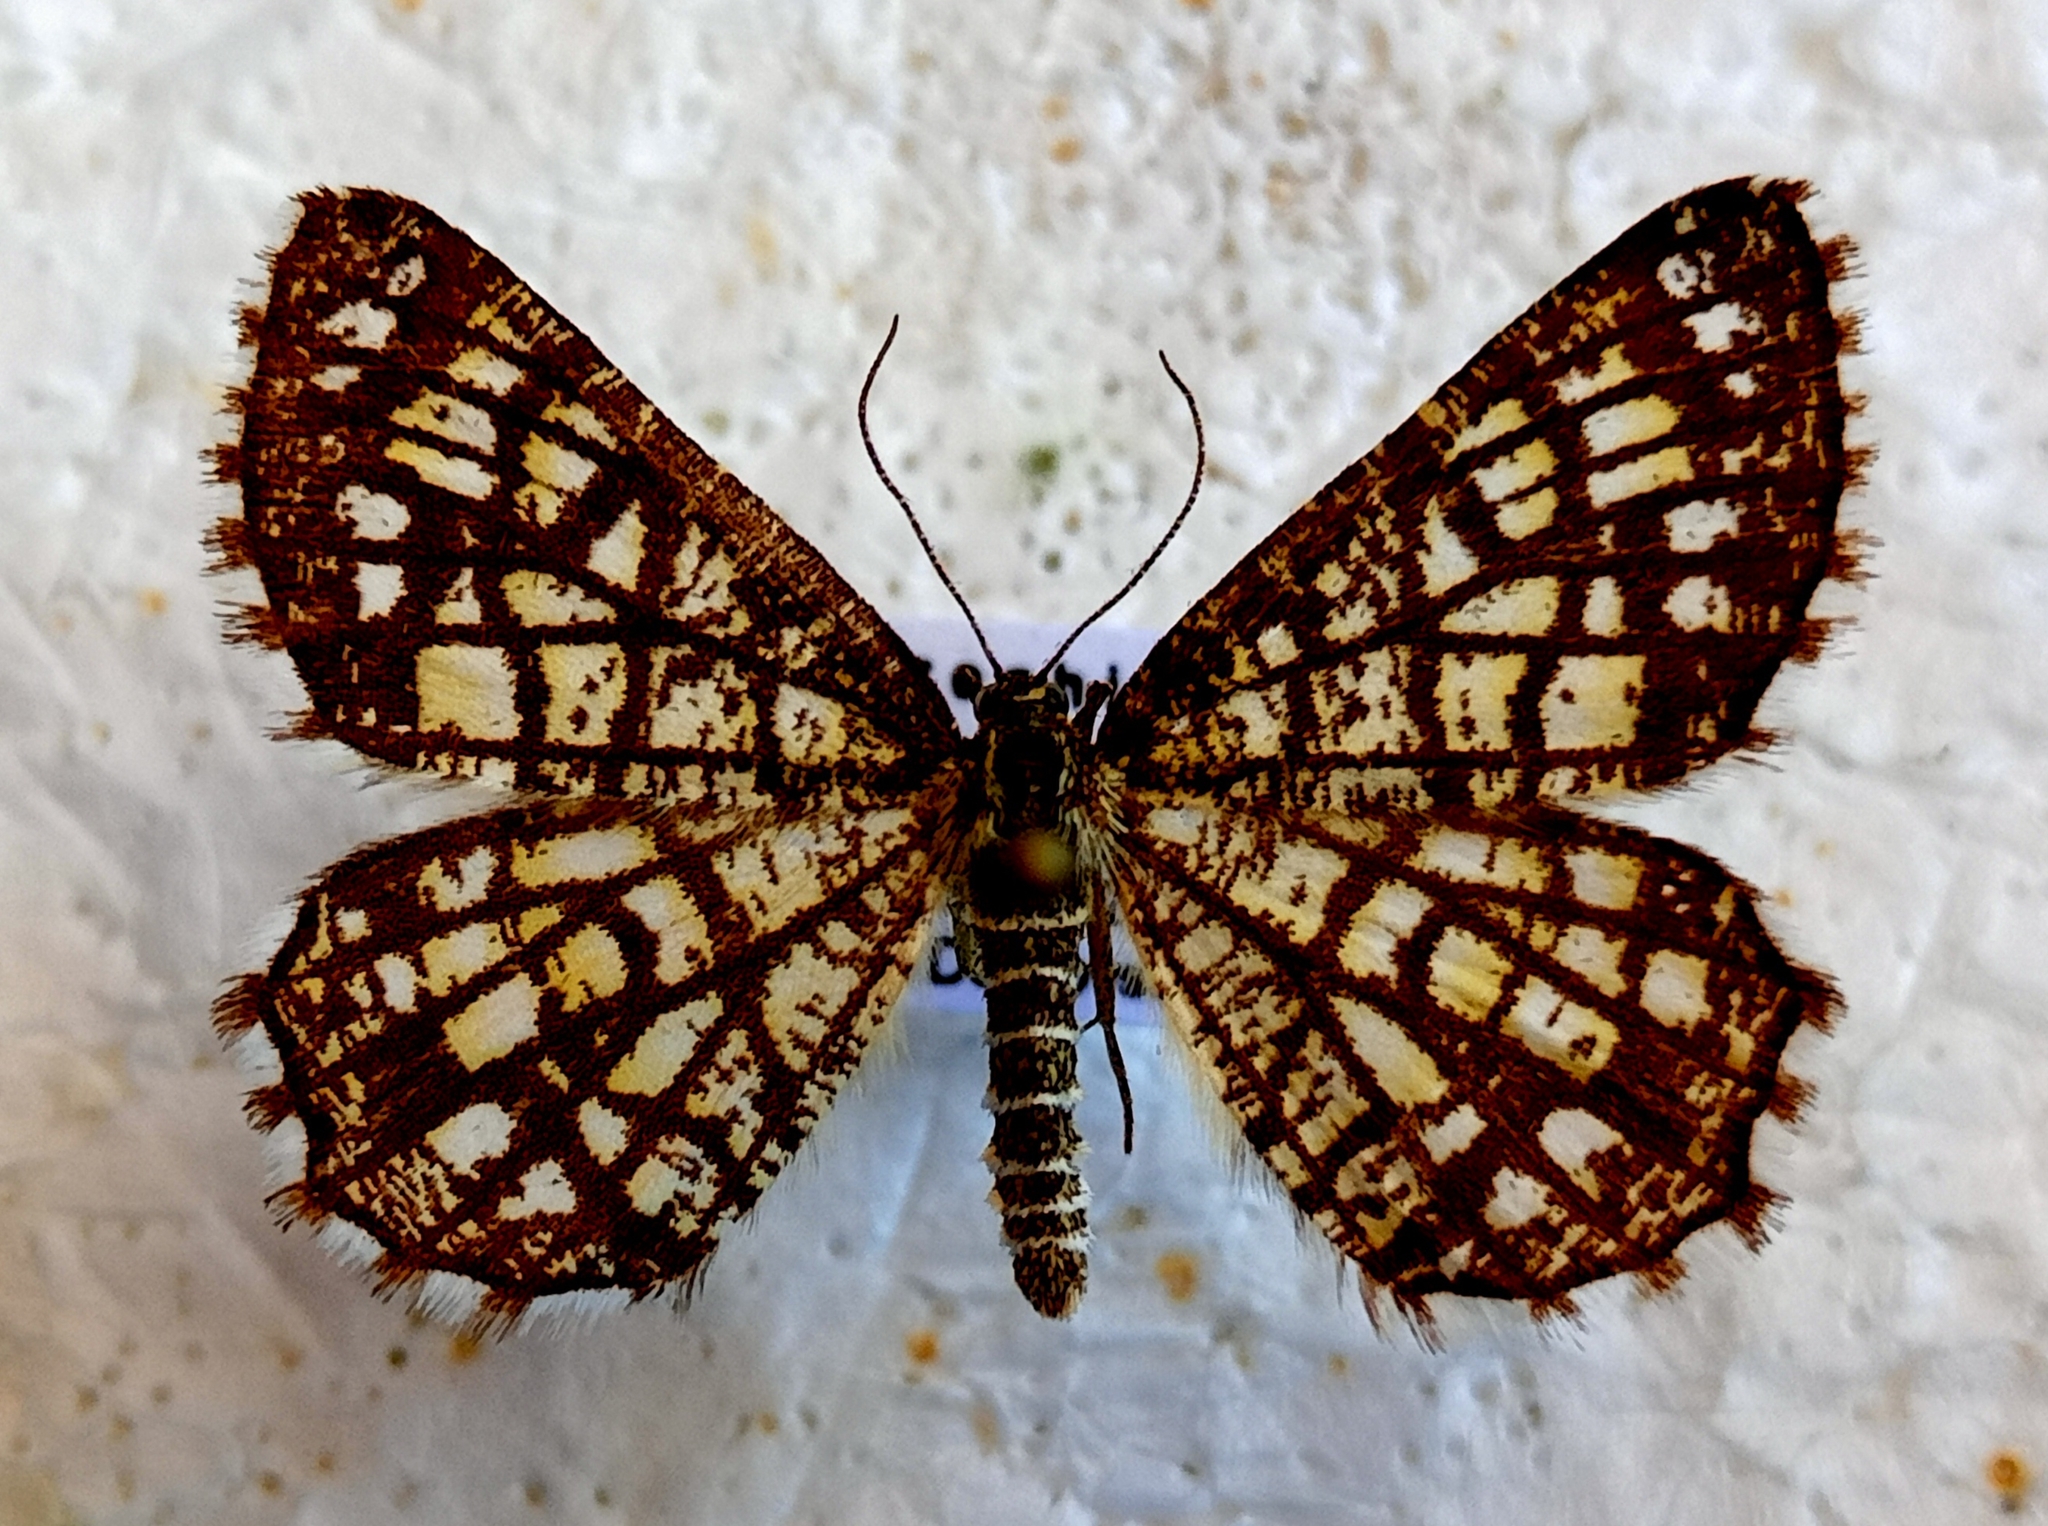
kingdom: Animalia
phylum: Arthropoda
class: Insecta
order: Lepidoptera
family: Geometridae
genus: Chiasmia
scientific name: Chiasmia clathrata
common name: Latticed heath
